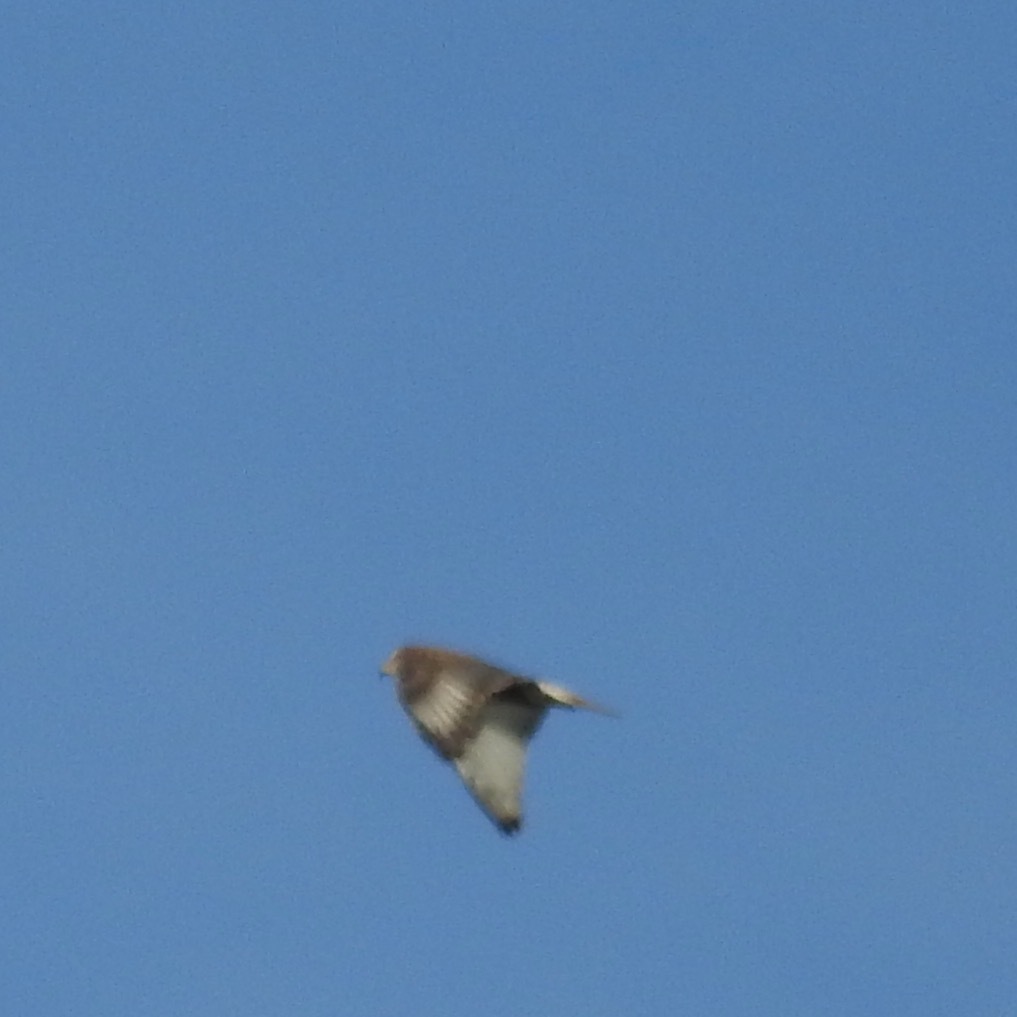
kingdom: Animalia
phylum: Chordata
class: Aves
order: Accipitriformes
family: Accipitridae
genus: Buteo
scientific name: Buteo regalis
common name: Ferruginous hawk
